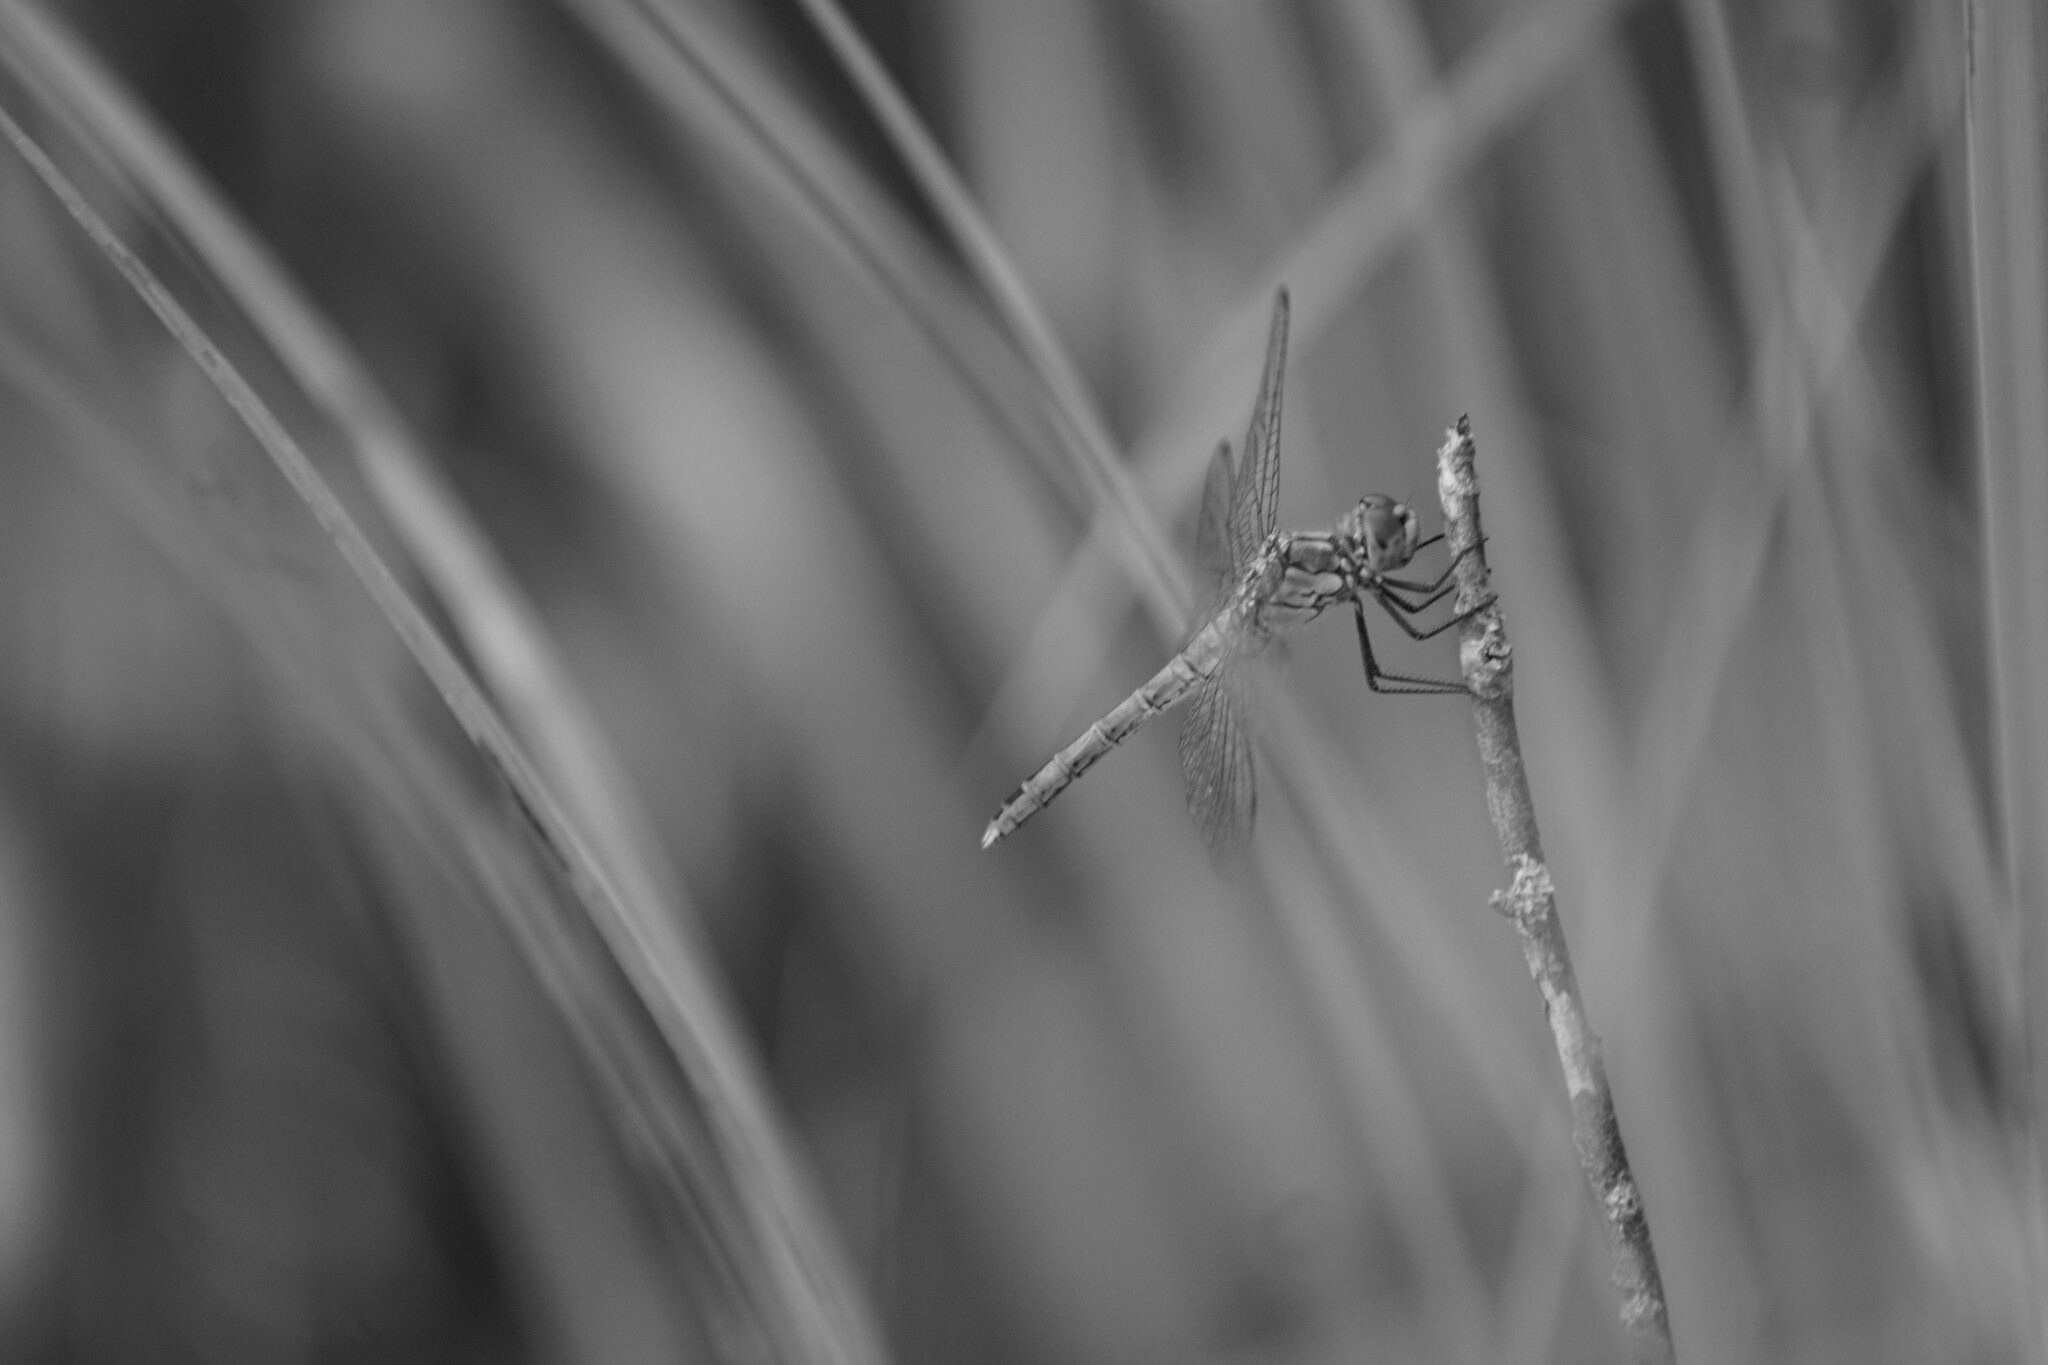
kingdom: Animalia
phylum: Arthropoda
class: Insecta
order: Odonata
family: Libellulidae
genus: Sympetrum
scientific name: Sympetrum sanguineum
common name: Ruddy darter
